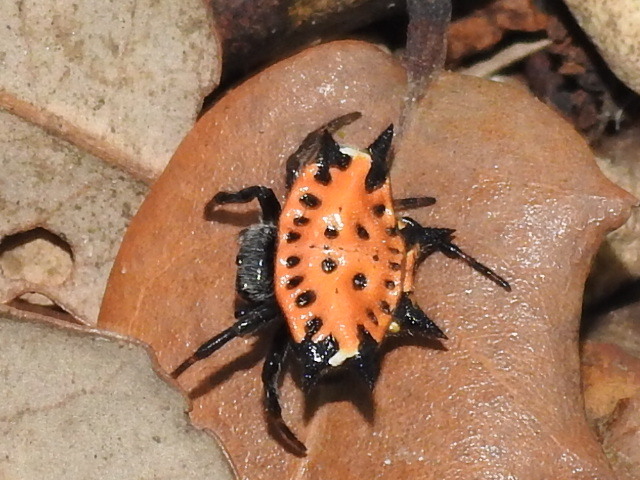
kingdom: Animalia
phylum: Arthropoda
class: Arachnida
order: Araneae
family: Araneidae
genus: Gasteracantha
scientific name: Gasteracantha cancriformis
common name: Orb weavers
